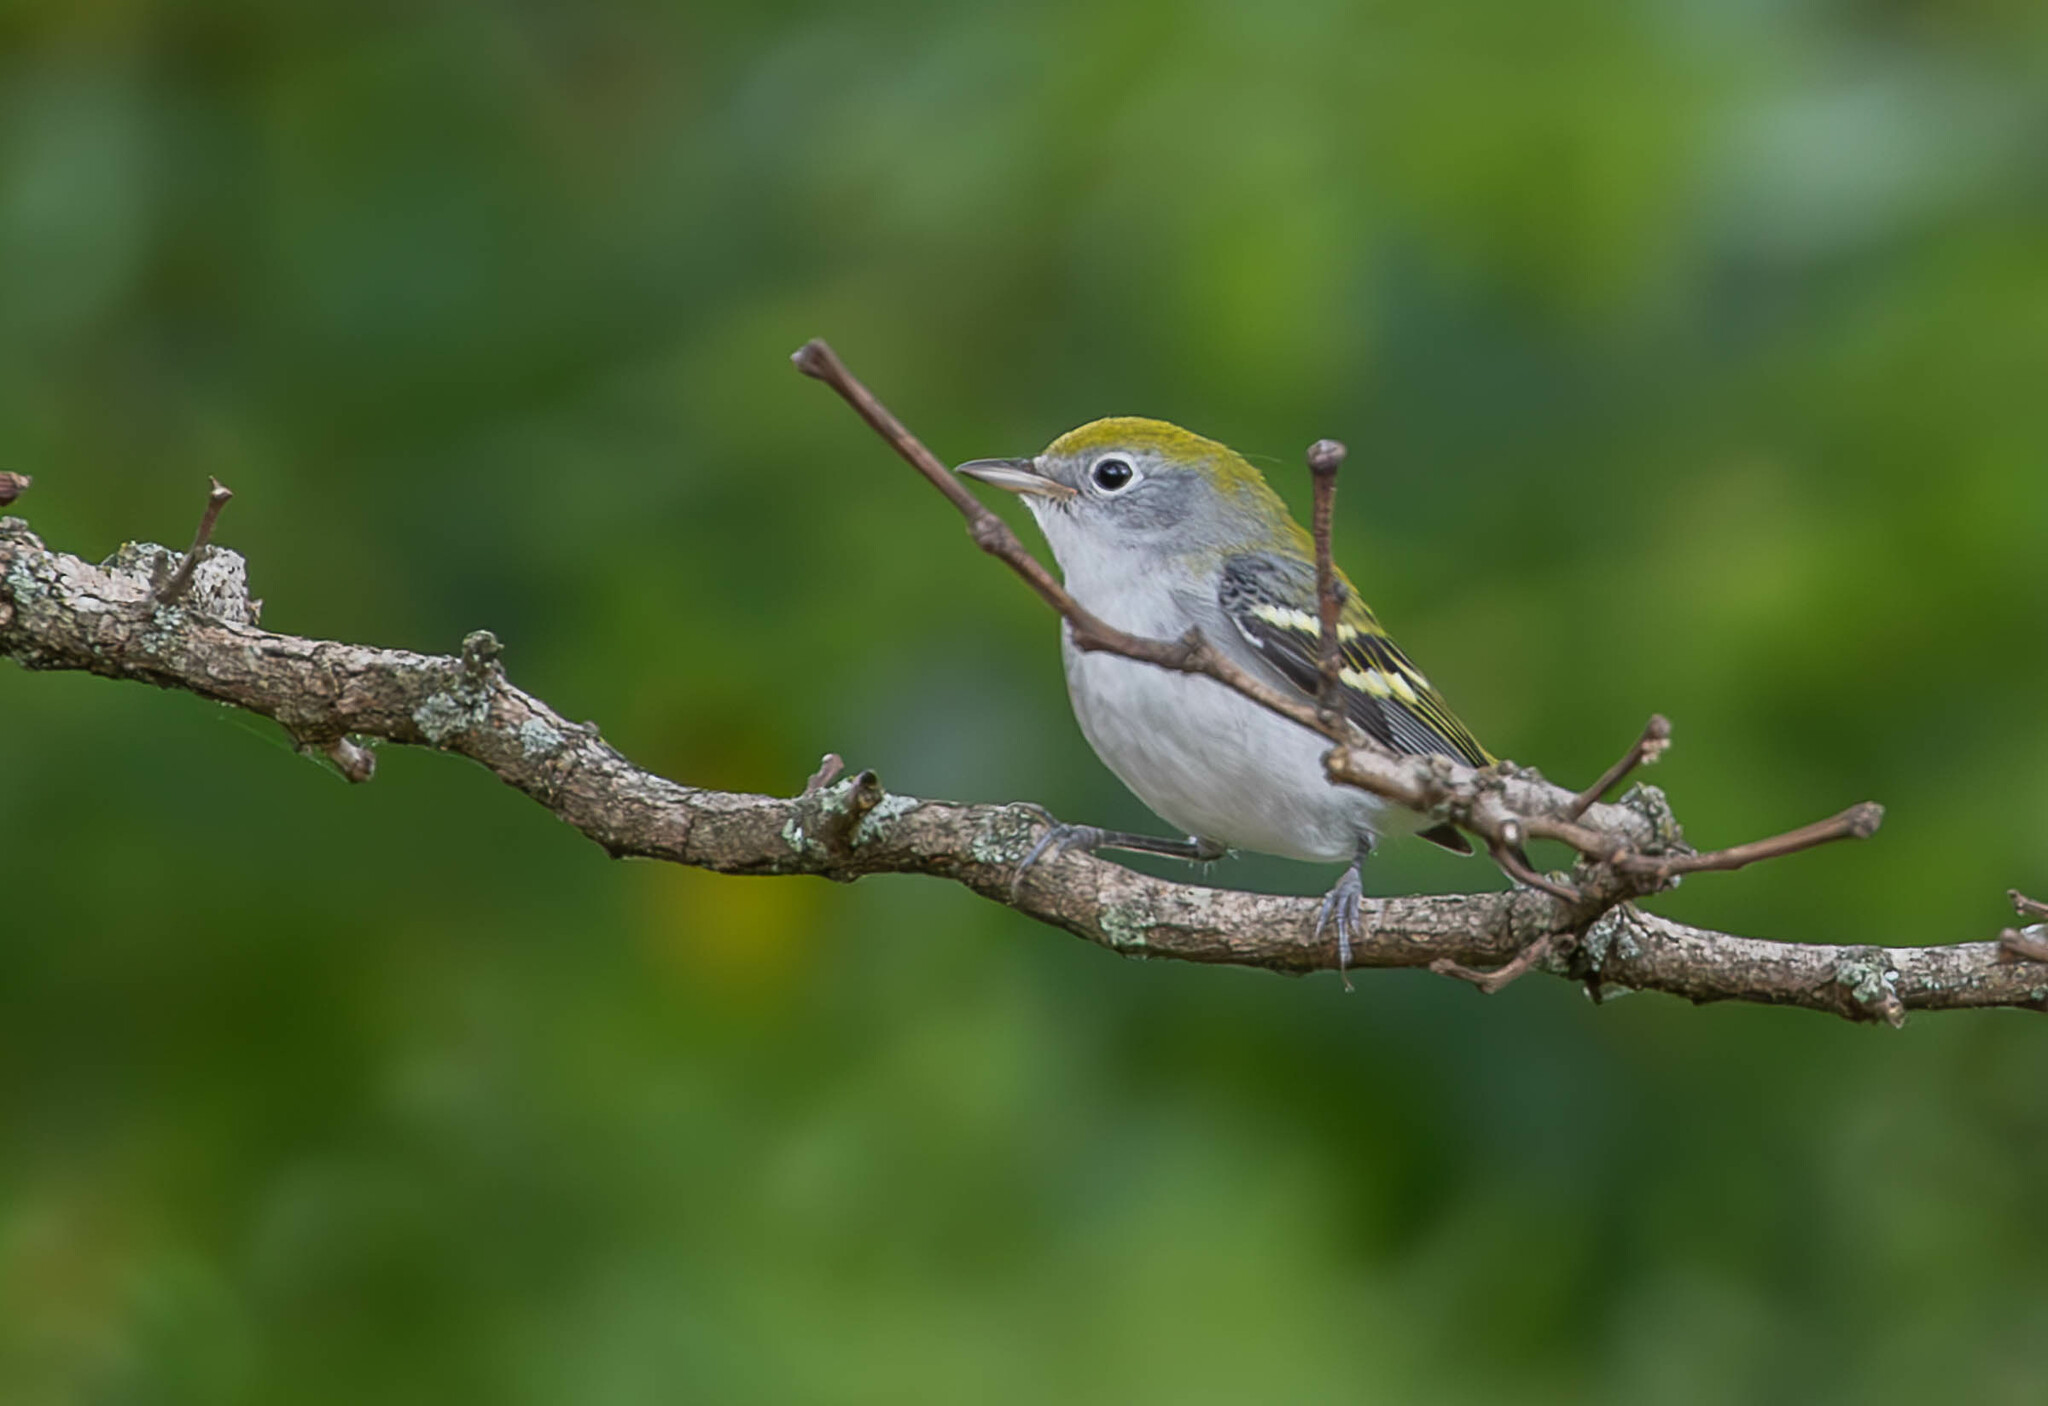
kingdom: Animalia
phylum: Chordata
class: Aves
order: Passeriformes
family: Parulidae
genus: Setophaga
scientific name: Setophaga pensylvanica
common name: Chestnut-sided warbler
